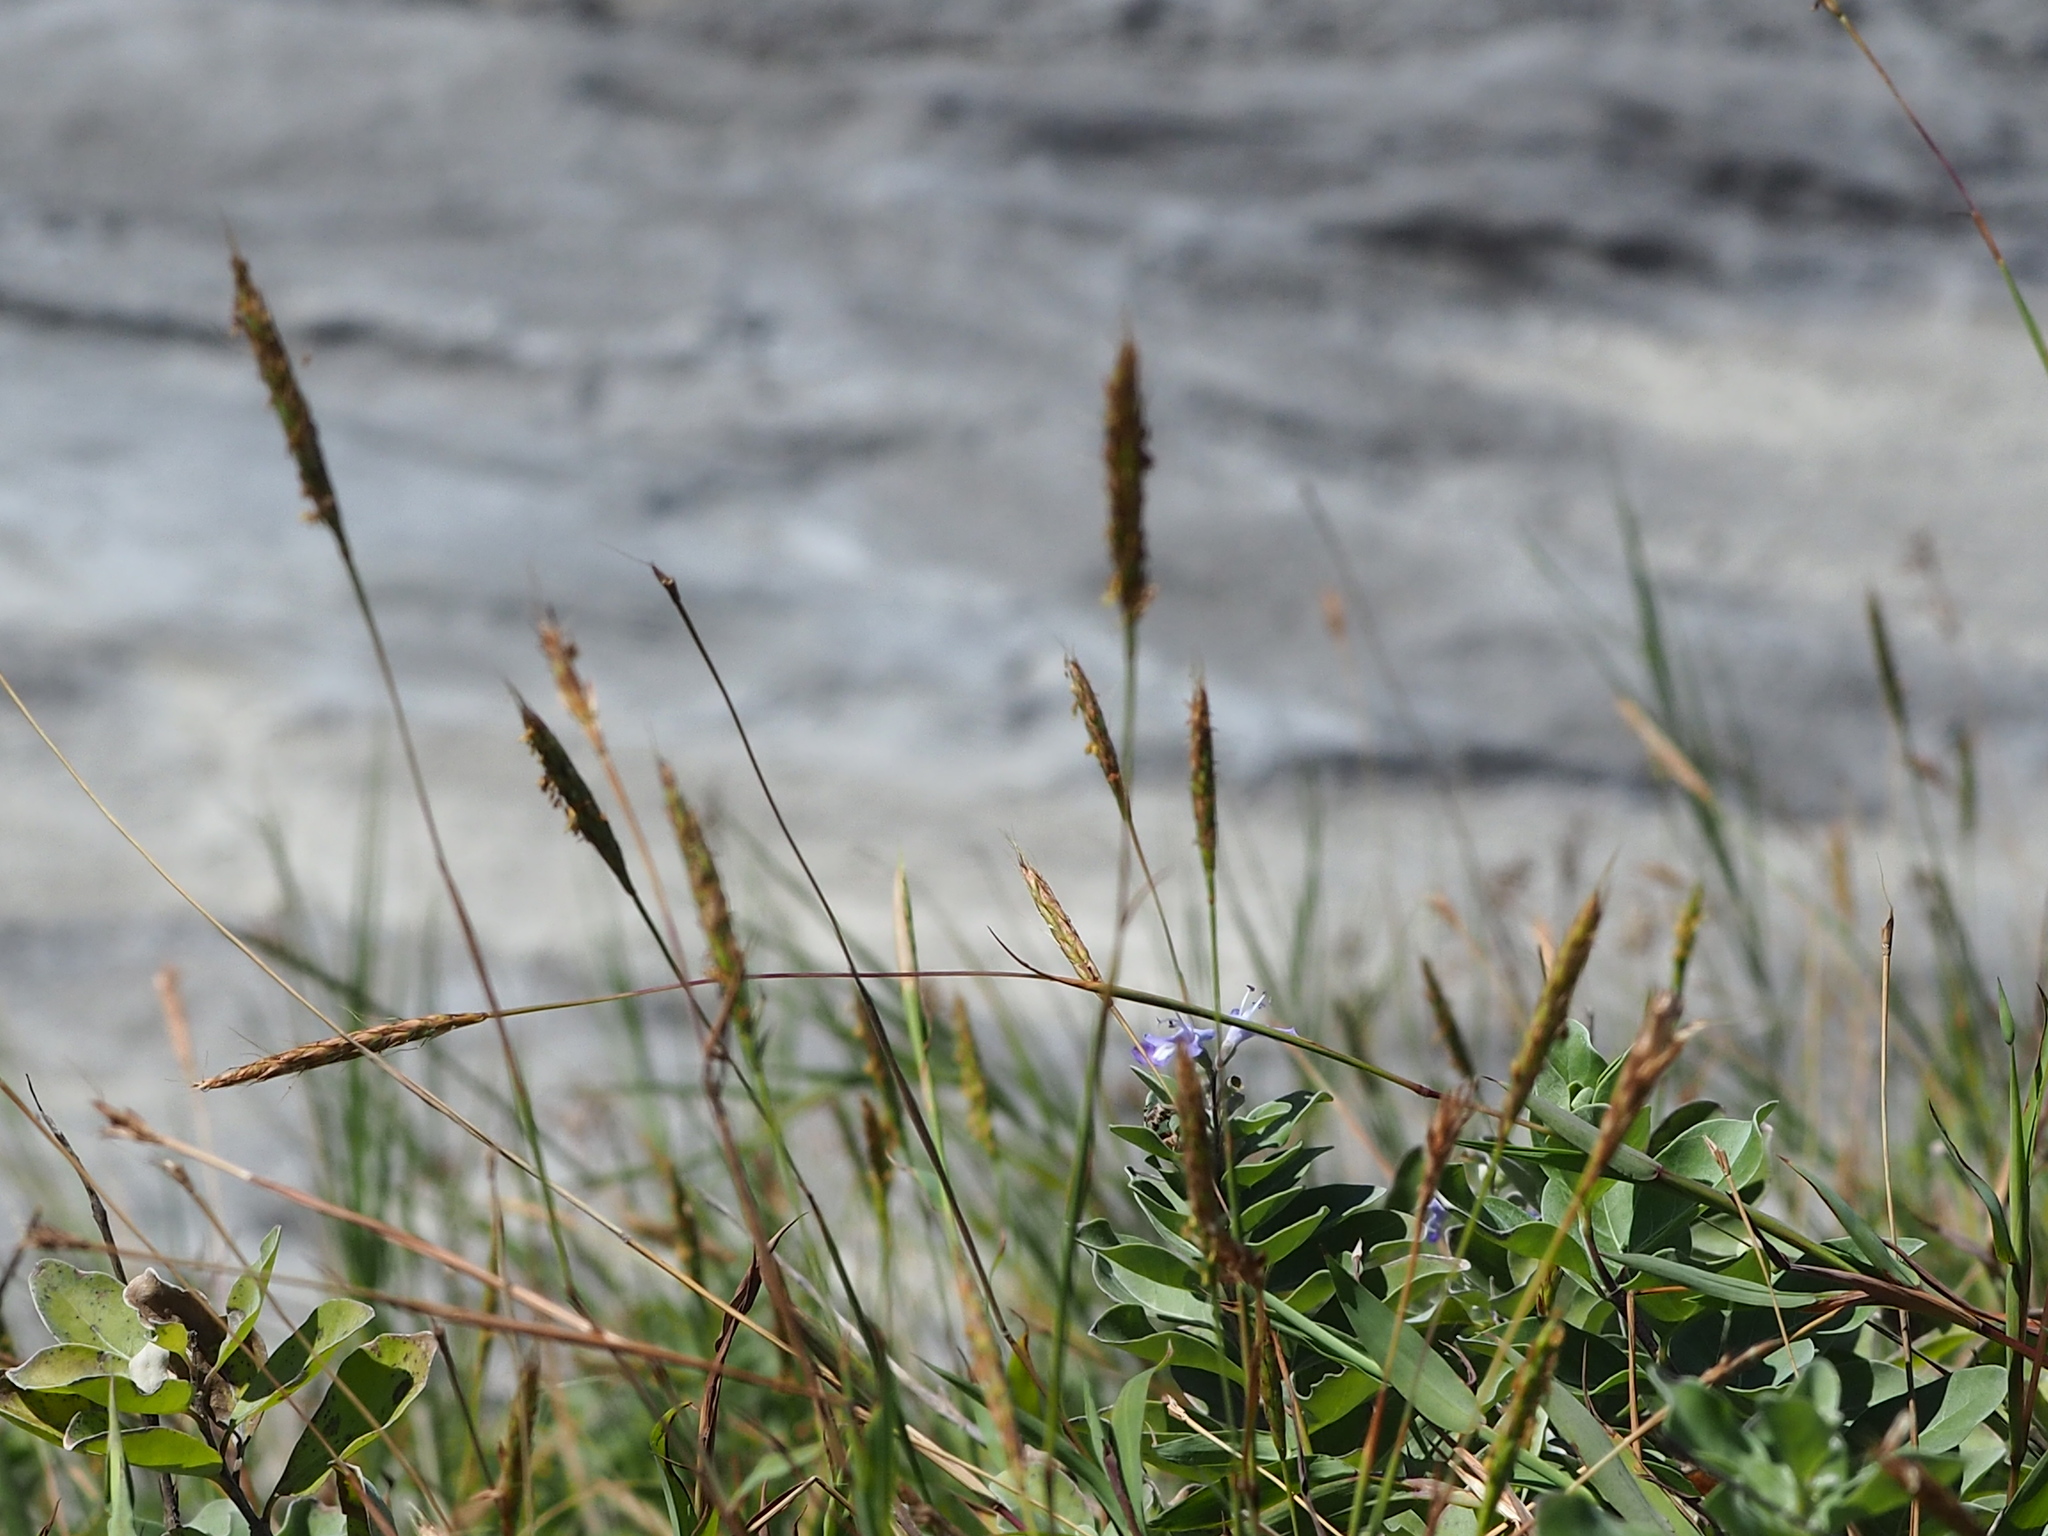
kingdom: Plantae
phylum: Tracheophyta
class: Liliopsida
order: Poales
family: Poaceae
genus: Ischaemum
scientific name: Ischaemum setaceum
